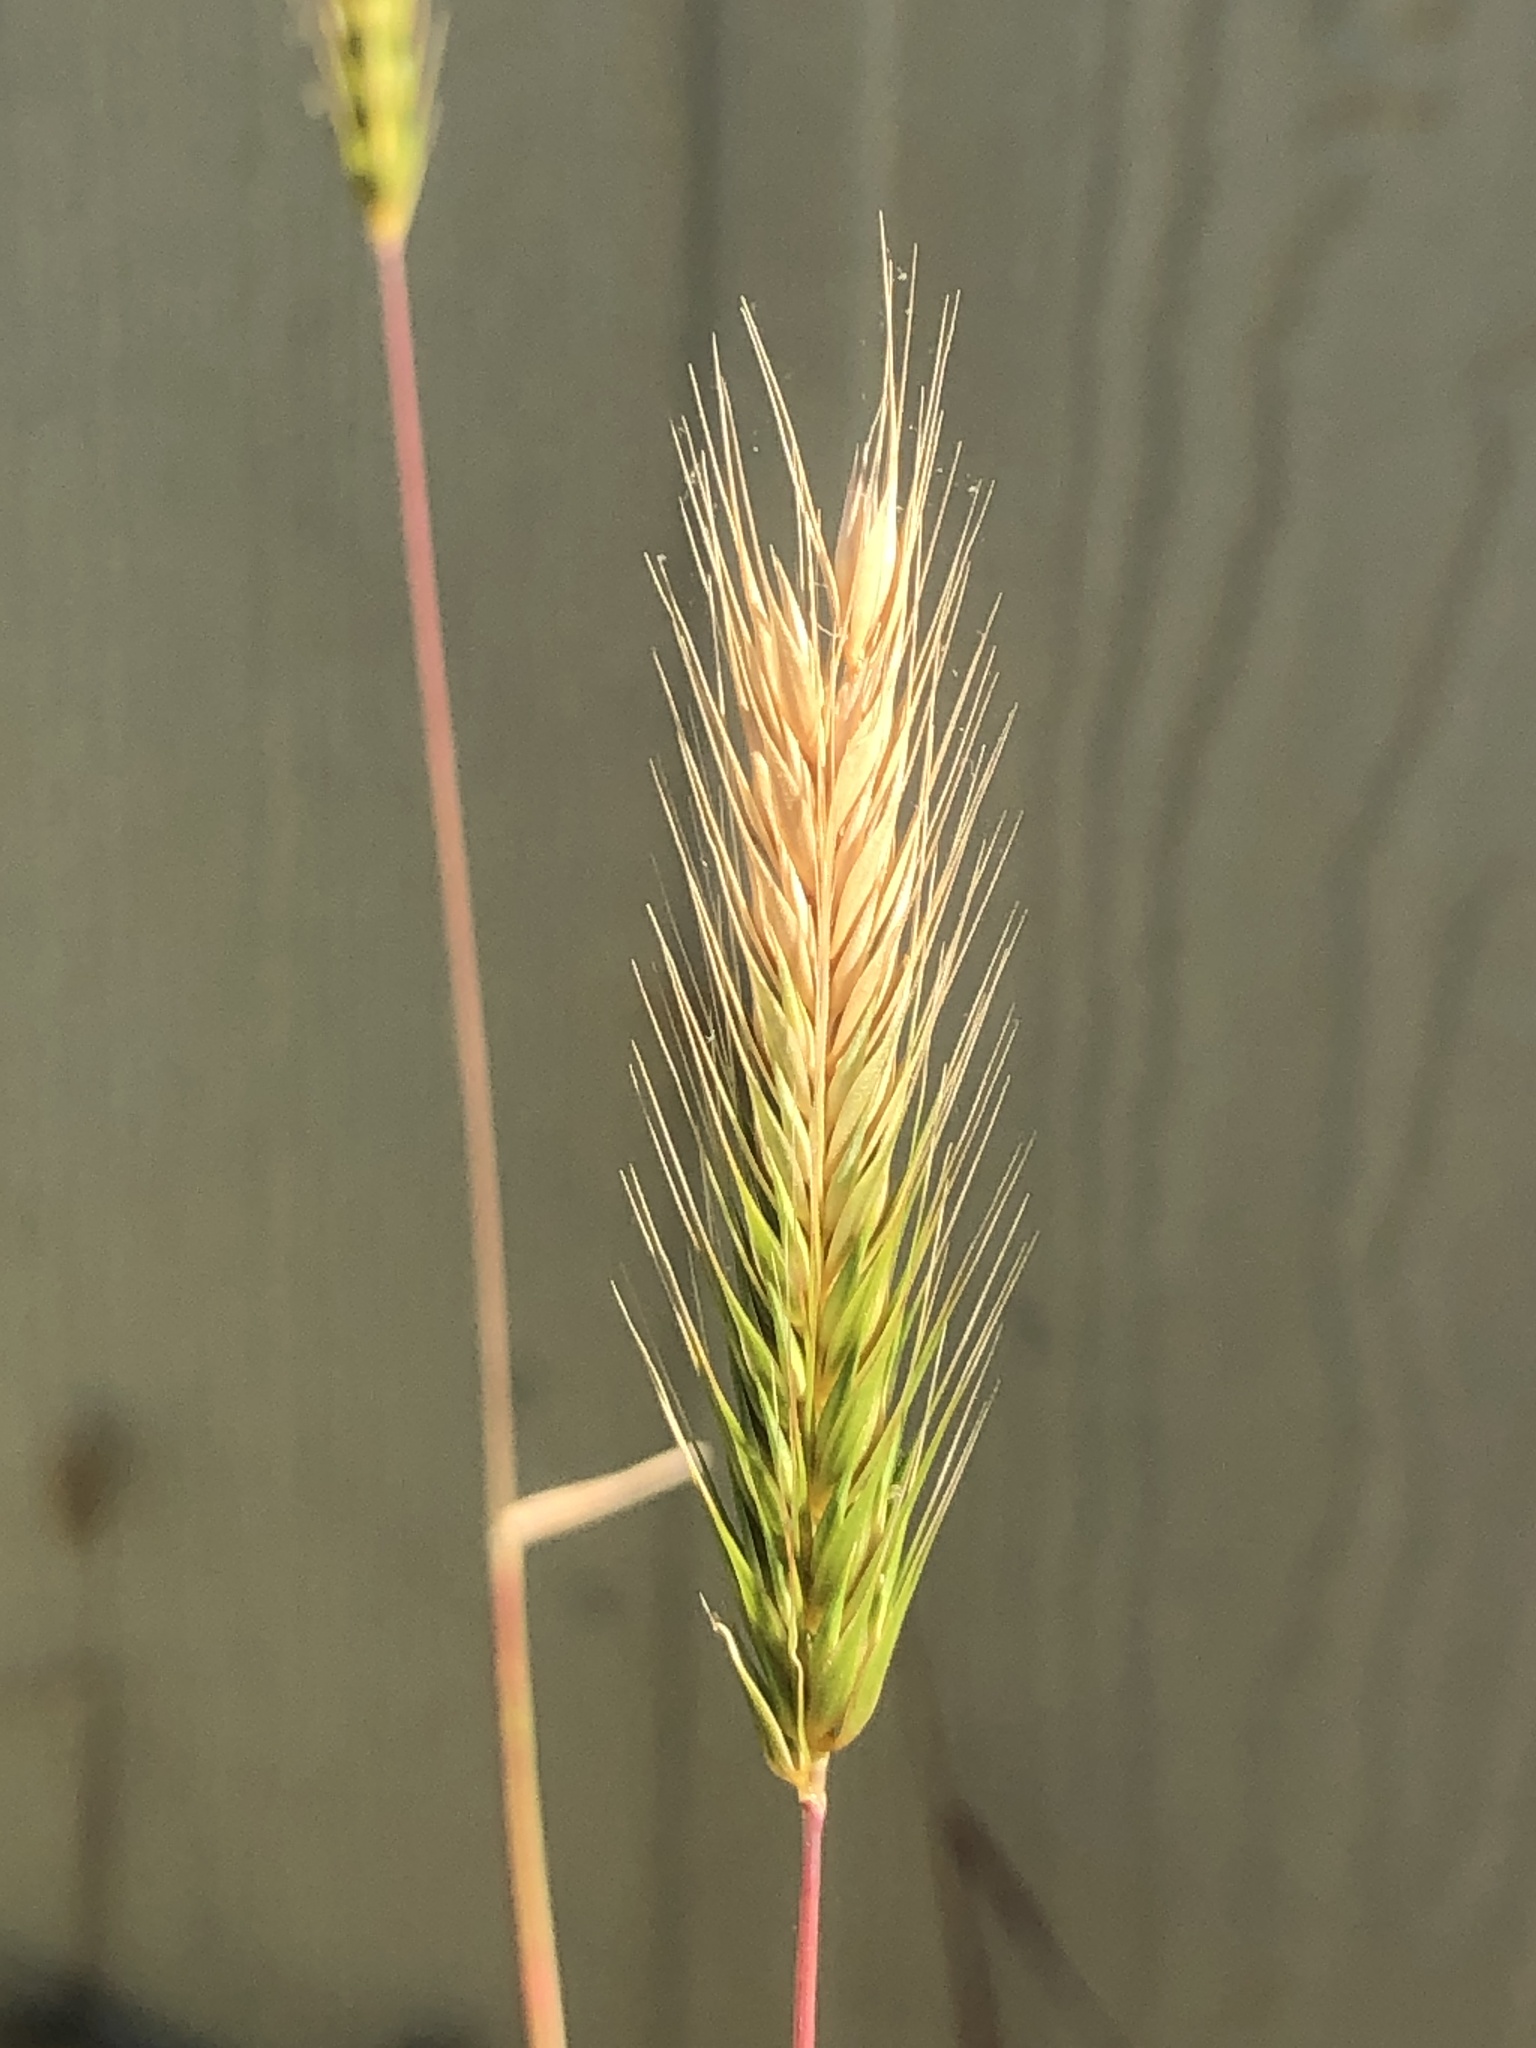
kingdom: Plantae
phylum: Tracheophyta
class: Liliopsida
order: Poales
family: Poaceae
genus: Hordeum
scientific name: Hordeum pusillum
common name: Little barley
